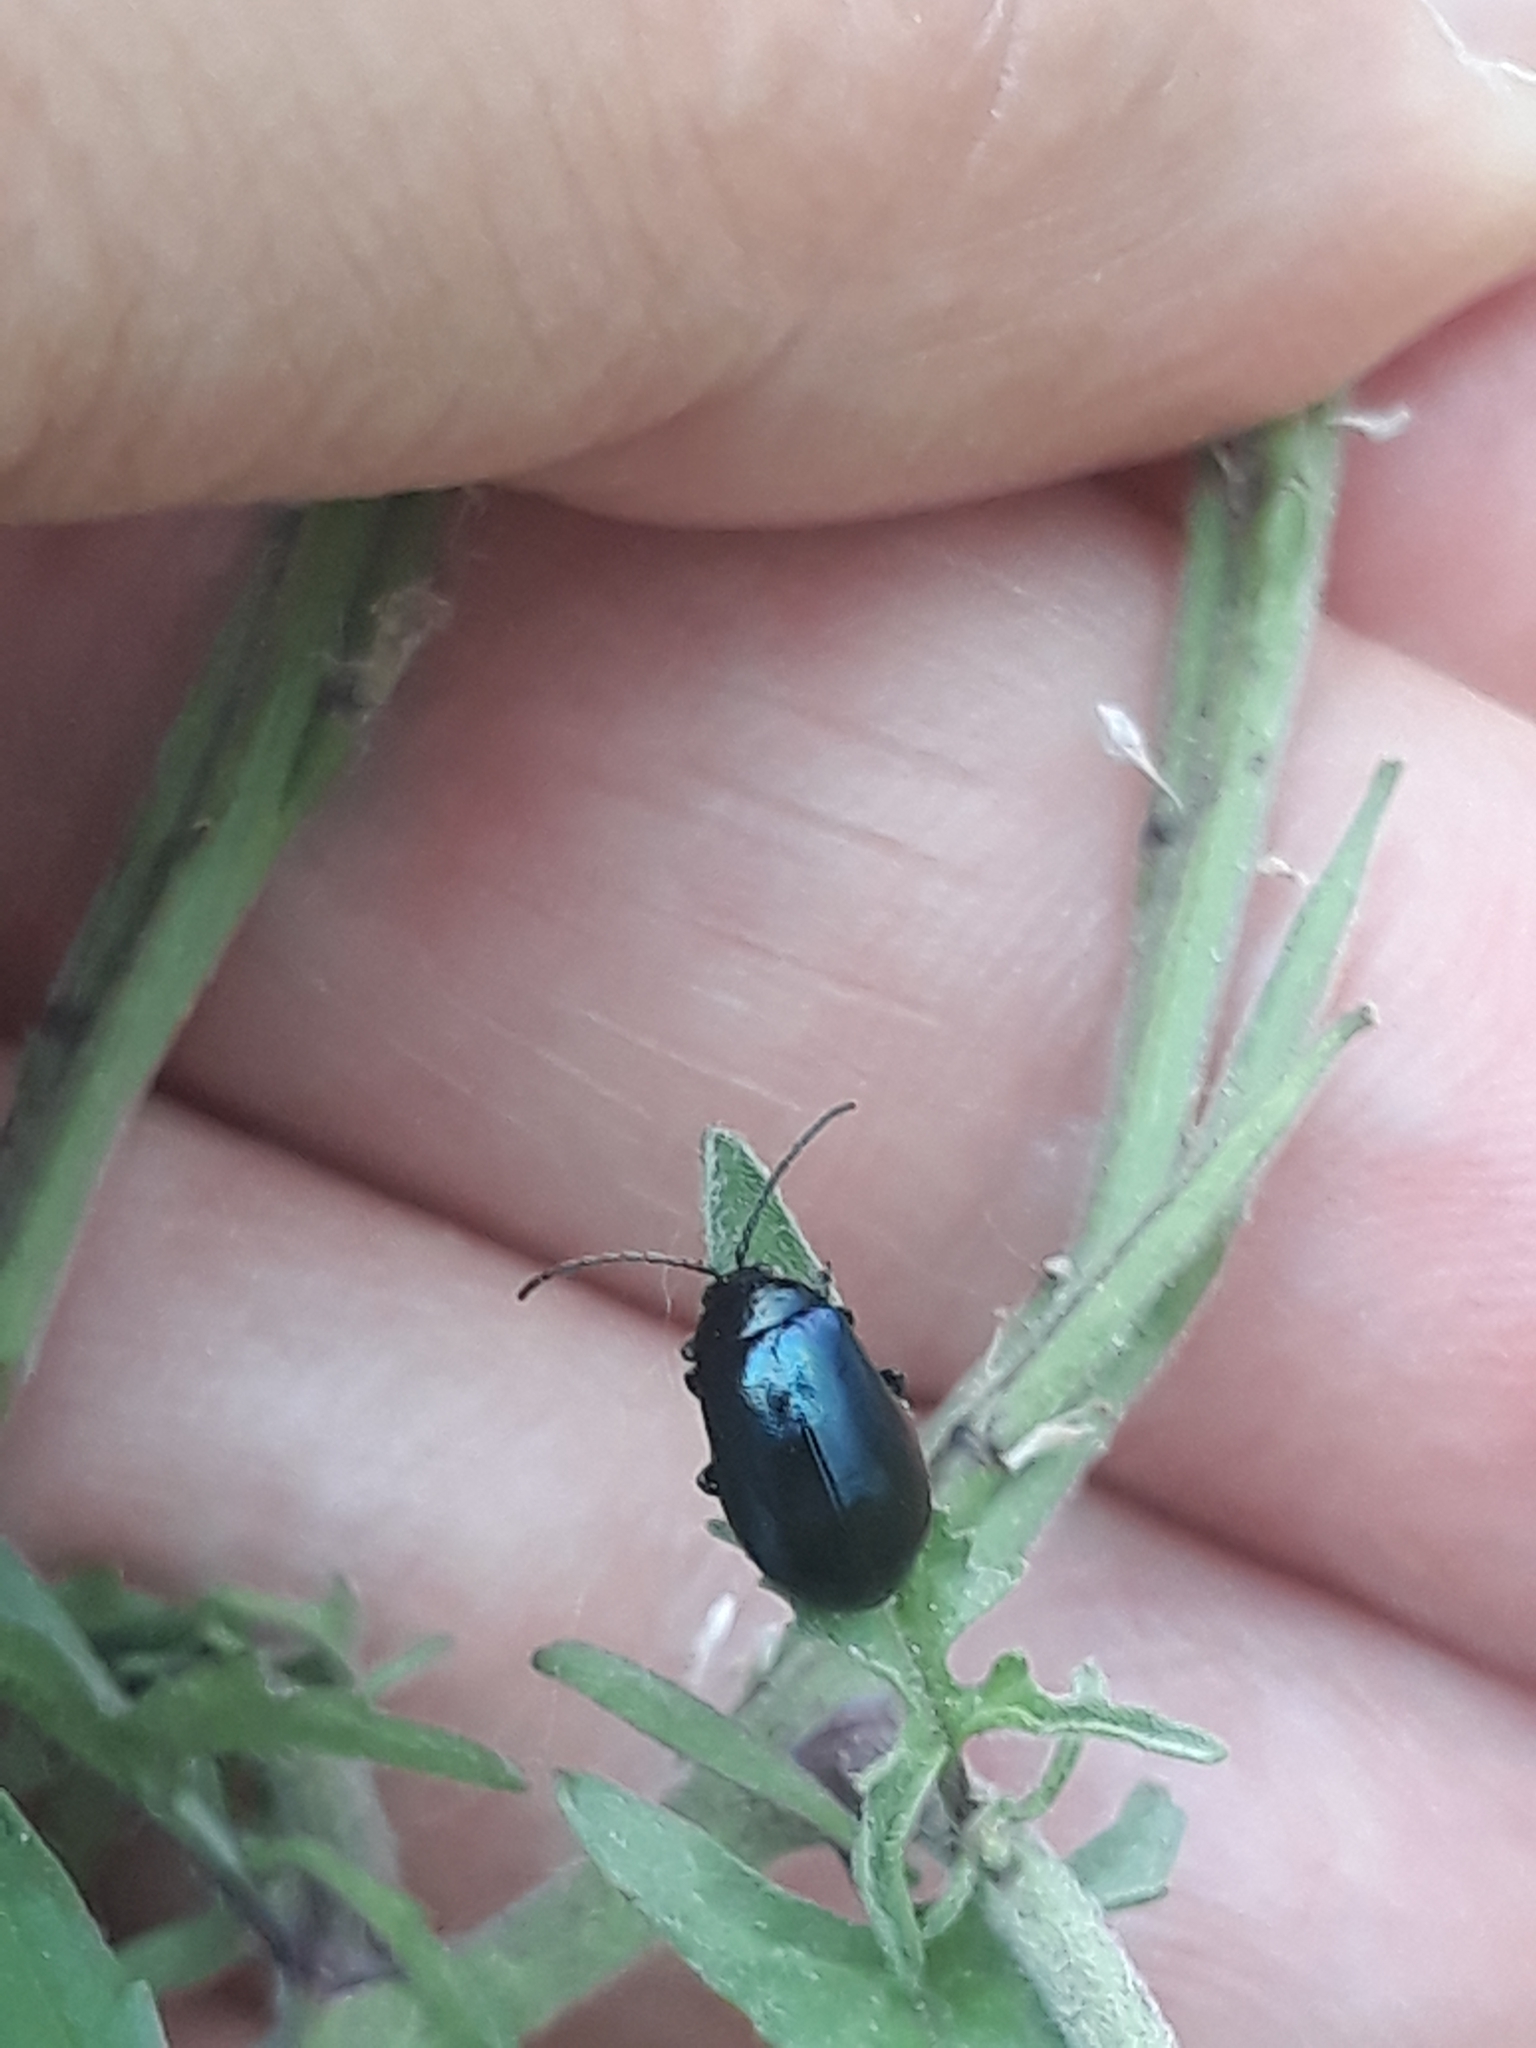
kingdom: Animalia
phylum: Arthropoda
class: Insecta
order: Coleoptera
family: Chrysomelidae
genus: Agelastica
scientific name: Agelastica alni
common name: Alder leaf beetle
